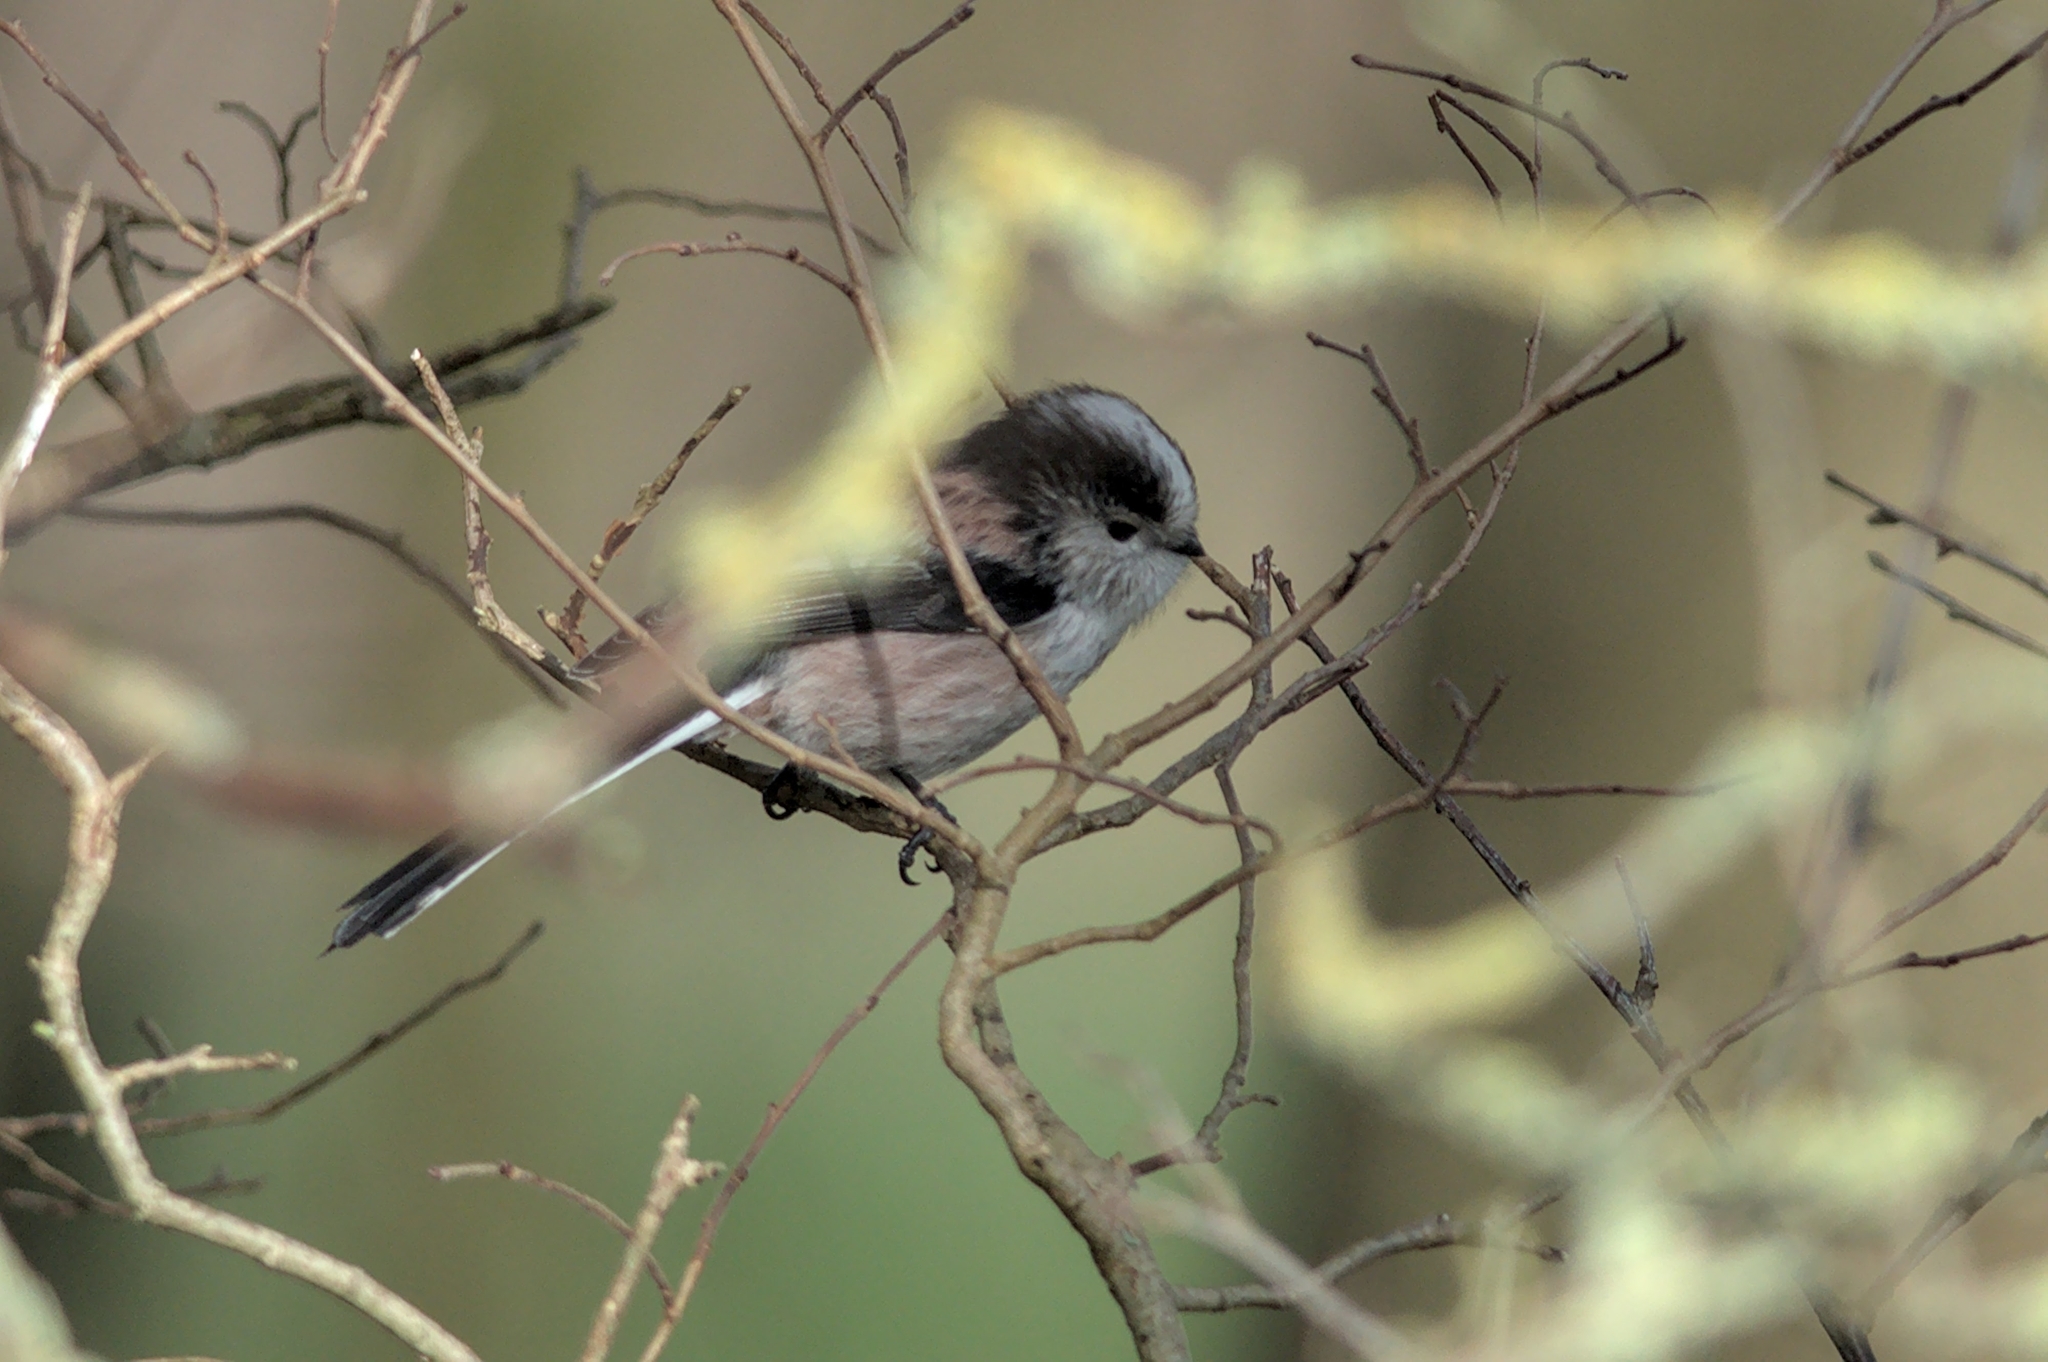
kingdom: Animalia
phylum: Chordata
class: Aves
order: Passeriformes
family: Aegithalidae
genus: Aegithalos
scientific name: Aegithalos caudatus
